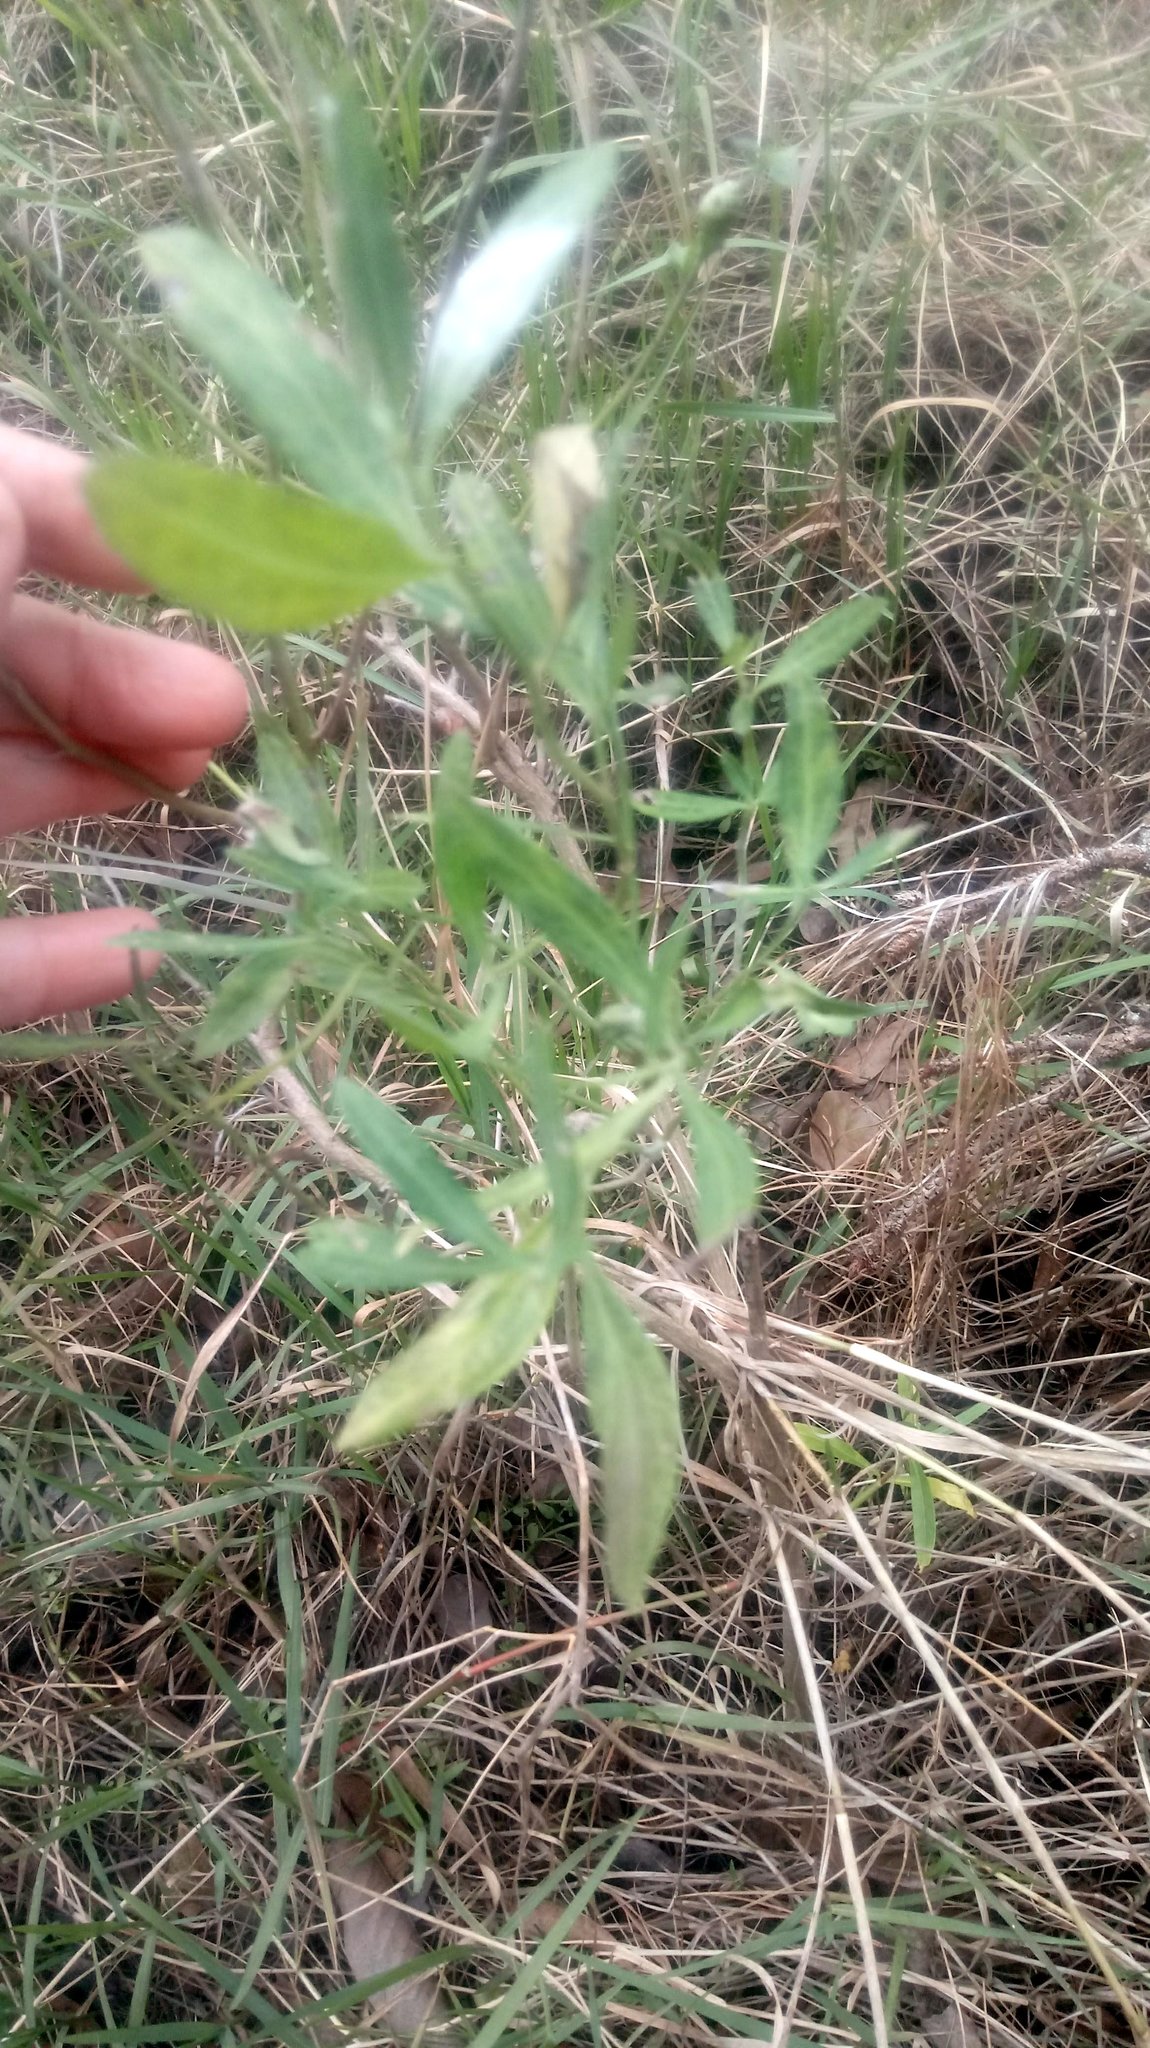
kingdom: Plantae
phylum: Tracheophyta
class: Magnoliopsida
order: Asterales
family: Asteraceae
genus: Baccharis
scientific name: Baccharis halimifolia
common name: Eastern baccharis
